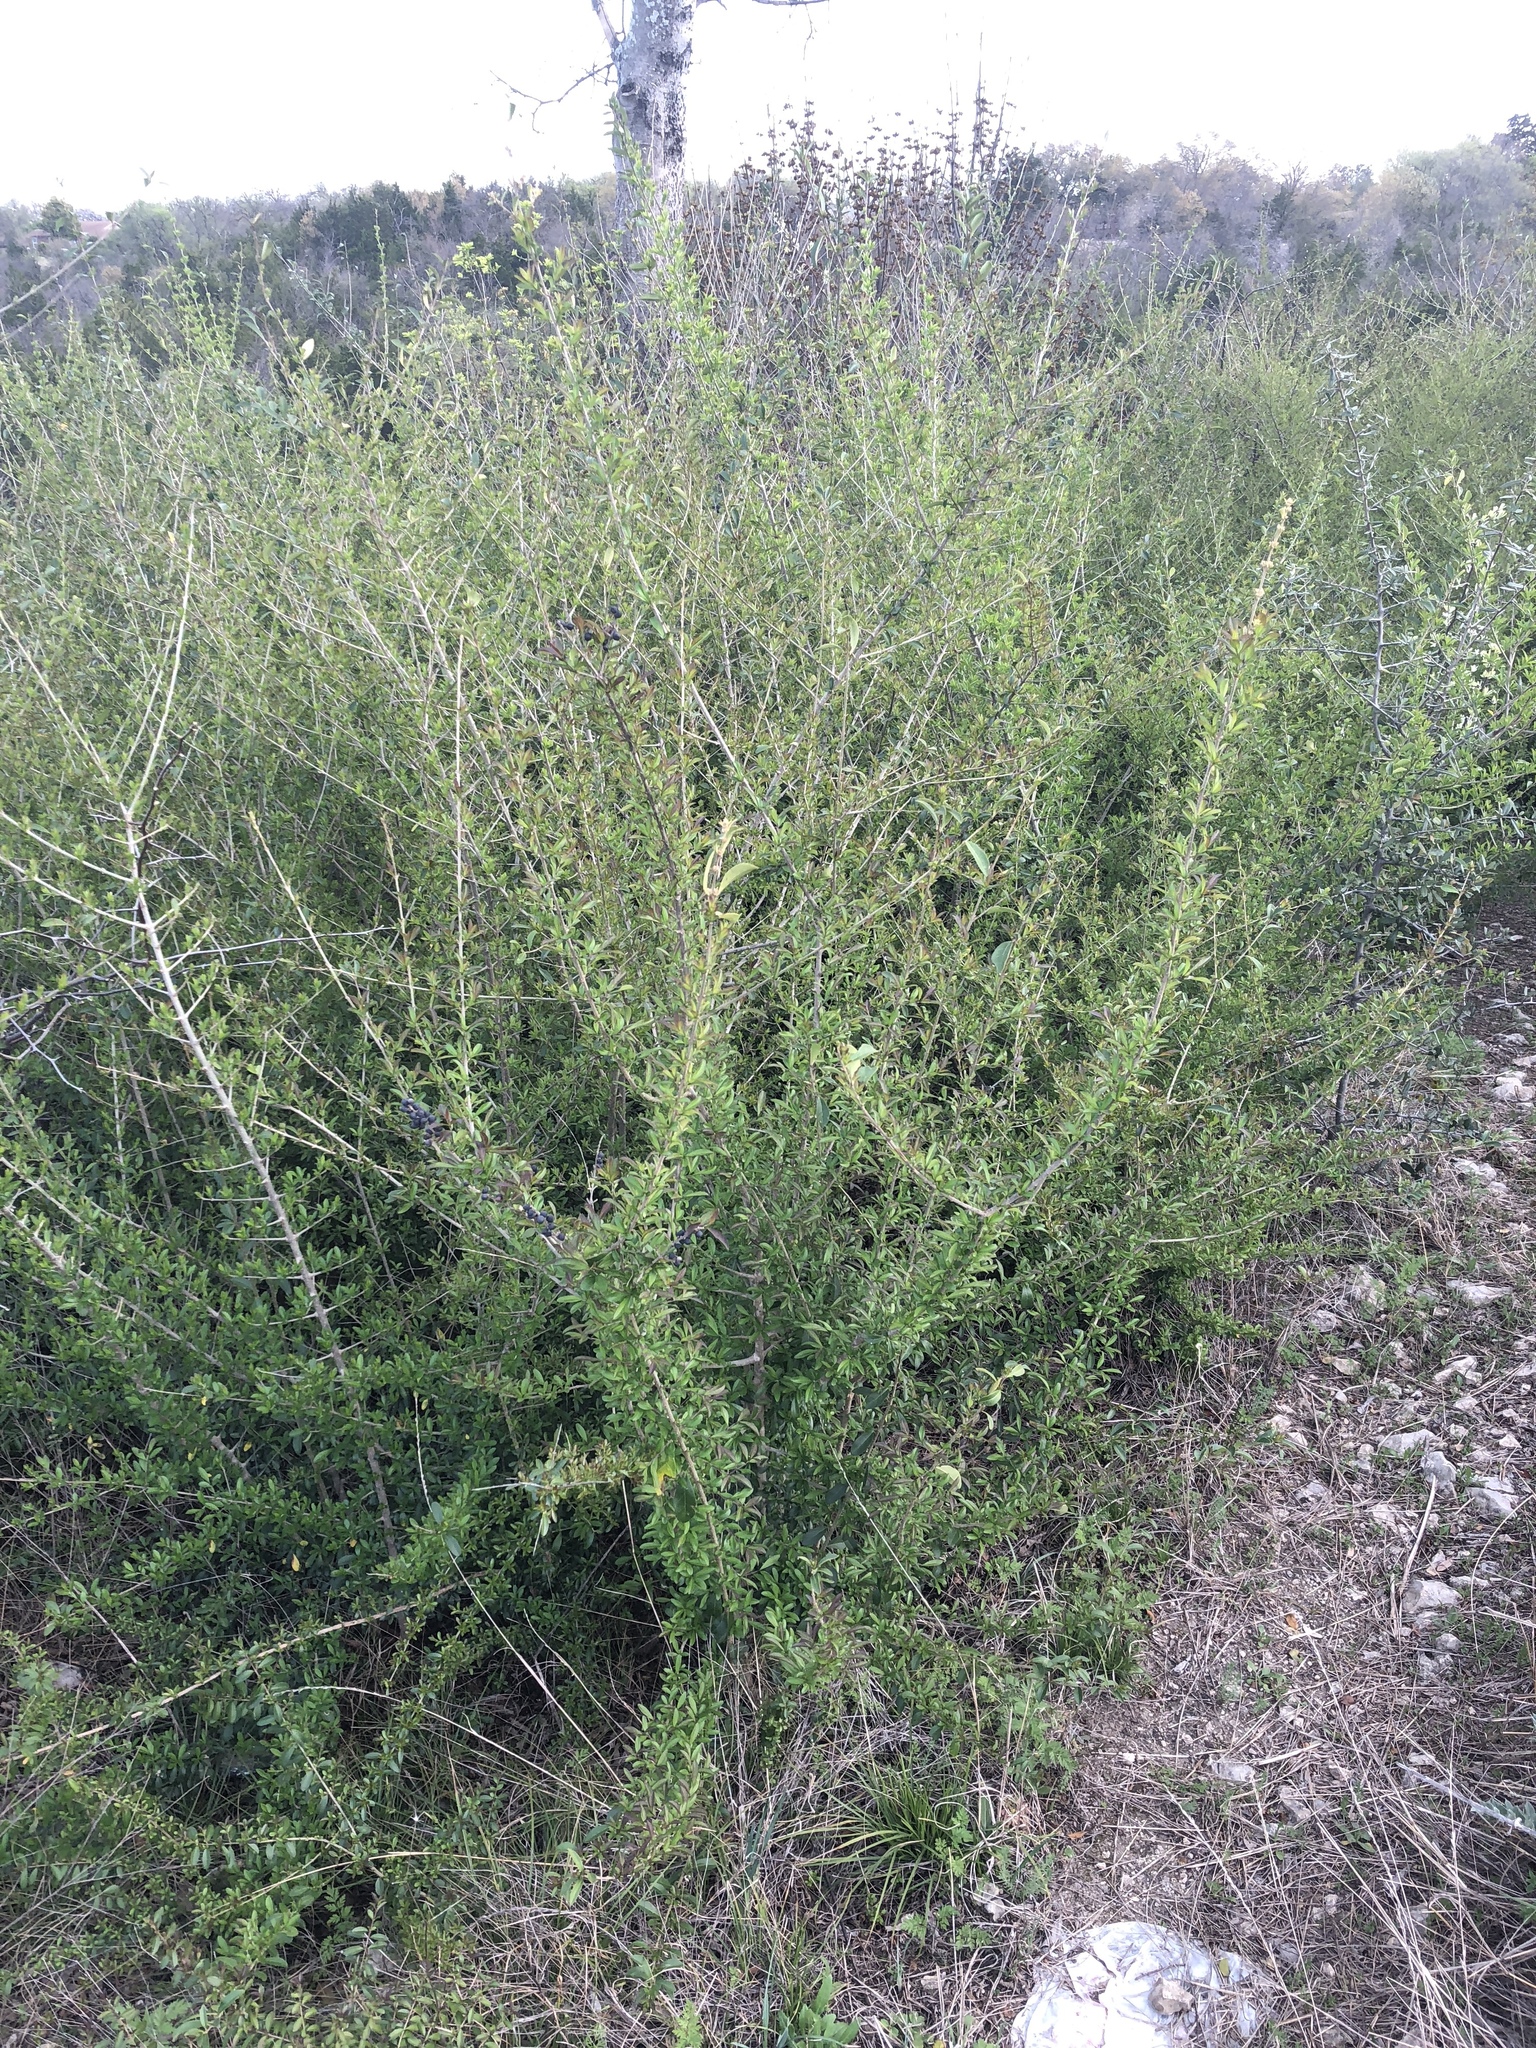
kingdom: Plantae
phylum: Tracheophyta
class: Magnoliopsida
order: Lamiales
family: Oleaceae
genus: Ligustrum
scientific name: Ligustrum quihoui
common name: Waxyleaf privet
